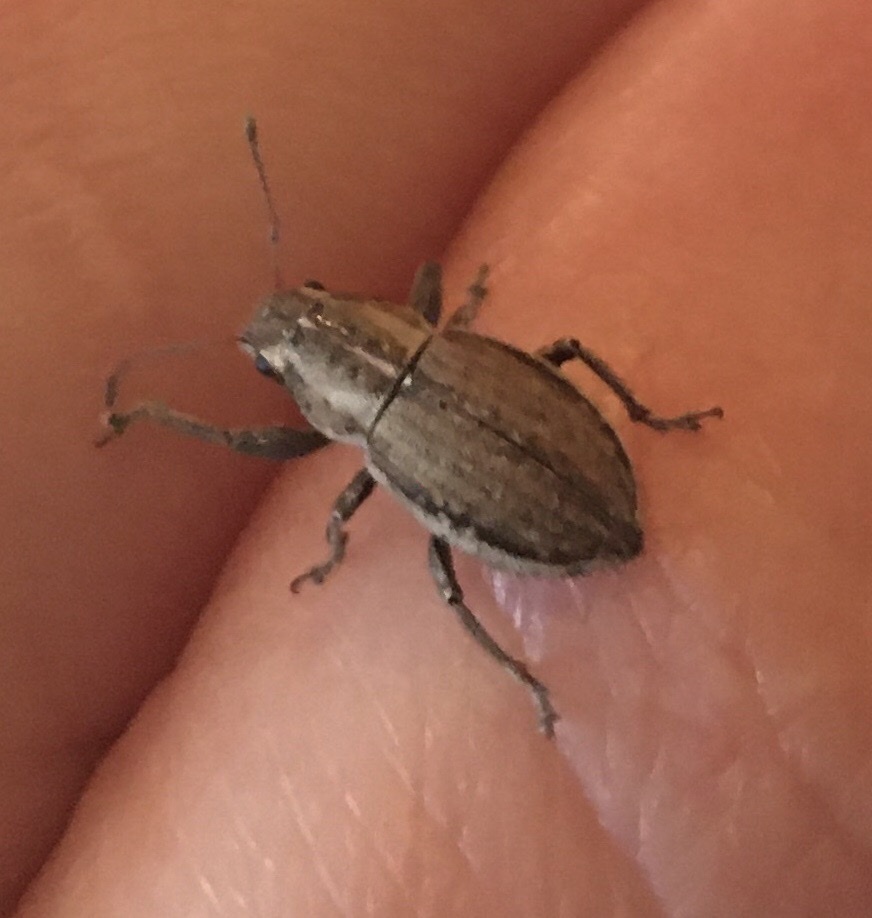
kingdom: Animalia
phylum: Arthropoda
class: Insecta
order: Coleoptera
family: Curculionidae
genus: Naupactus
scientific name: Naupactus peregrinus
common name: Whitefringed beetle
